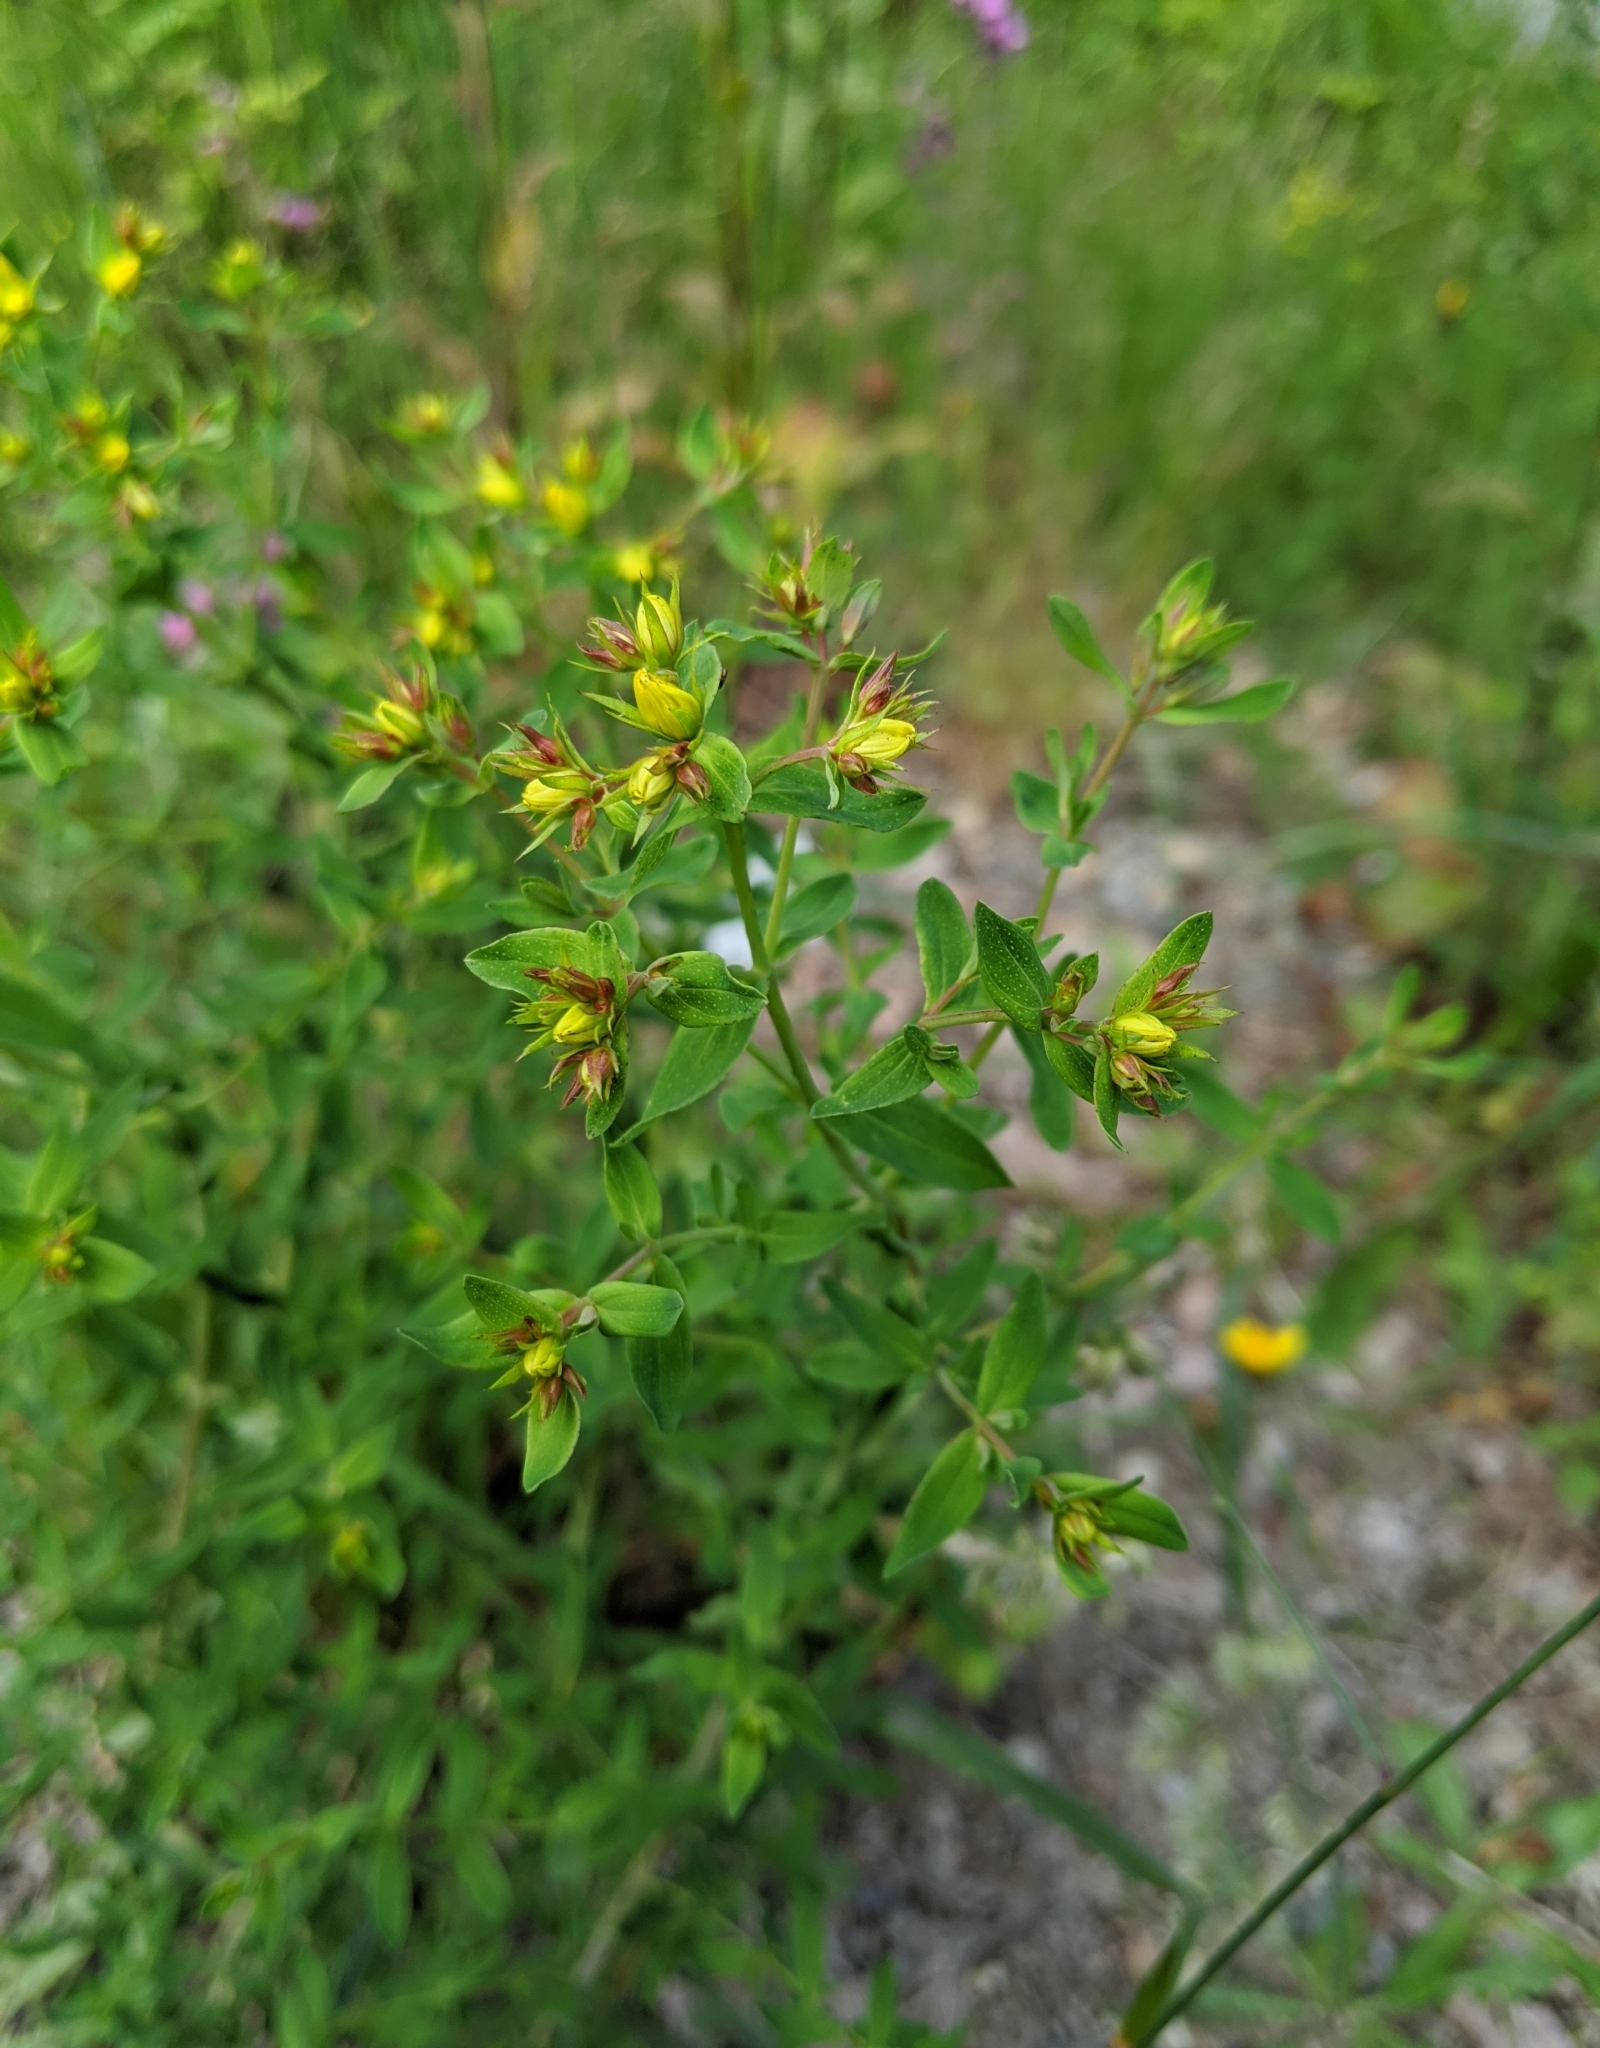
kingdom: Plantae
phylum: Tracheophyta
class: Magnoliopsida
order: Malpighiales
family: Hypericaceae
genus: Hypericum
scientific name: Hypericum perforatum
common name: Common st. johnswort
